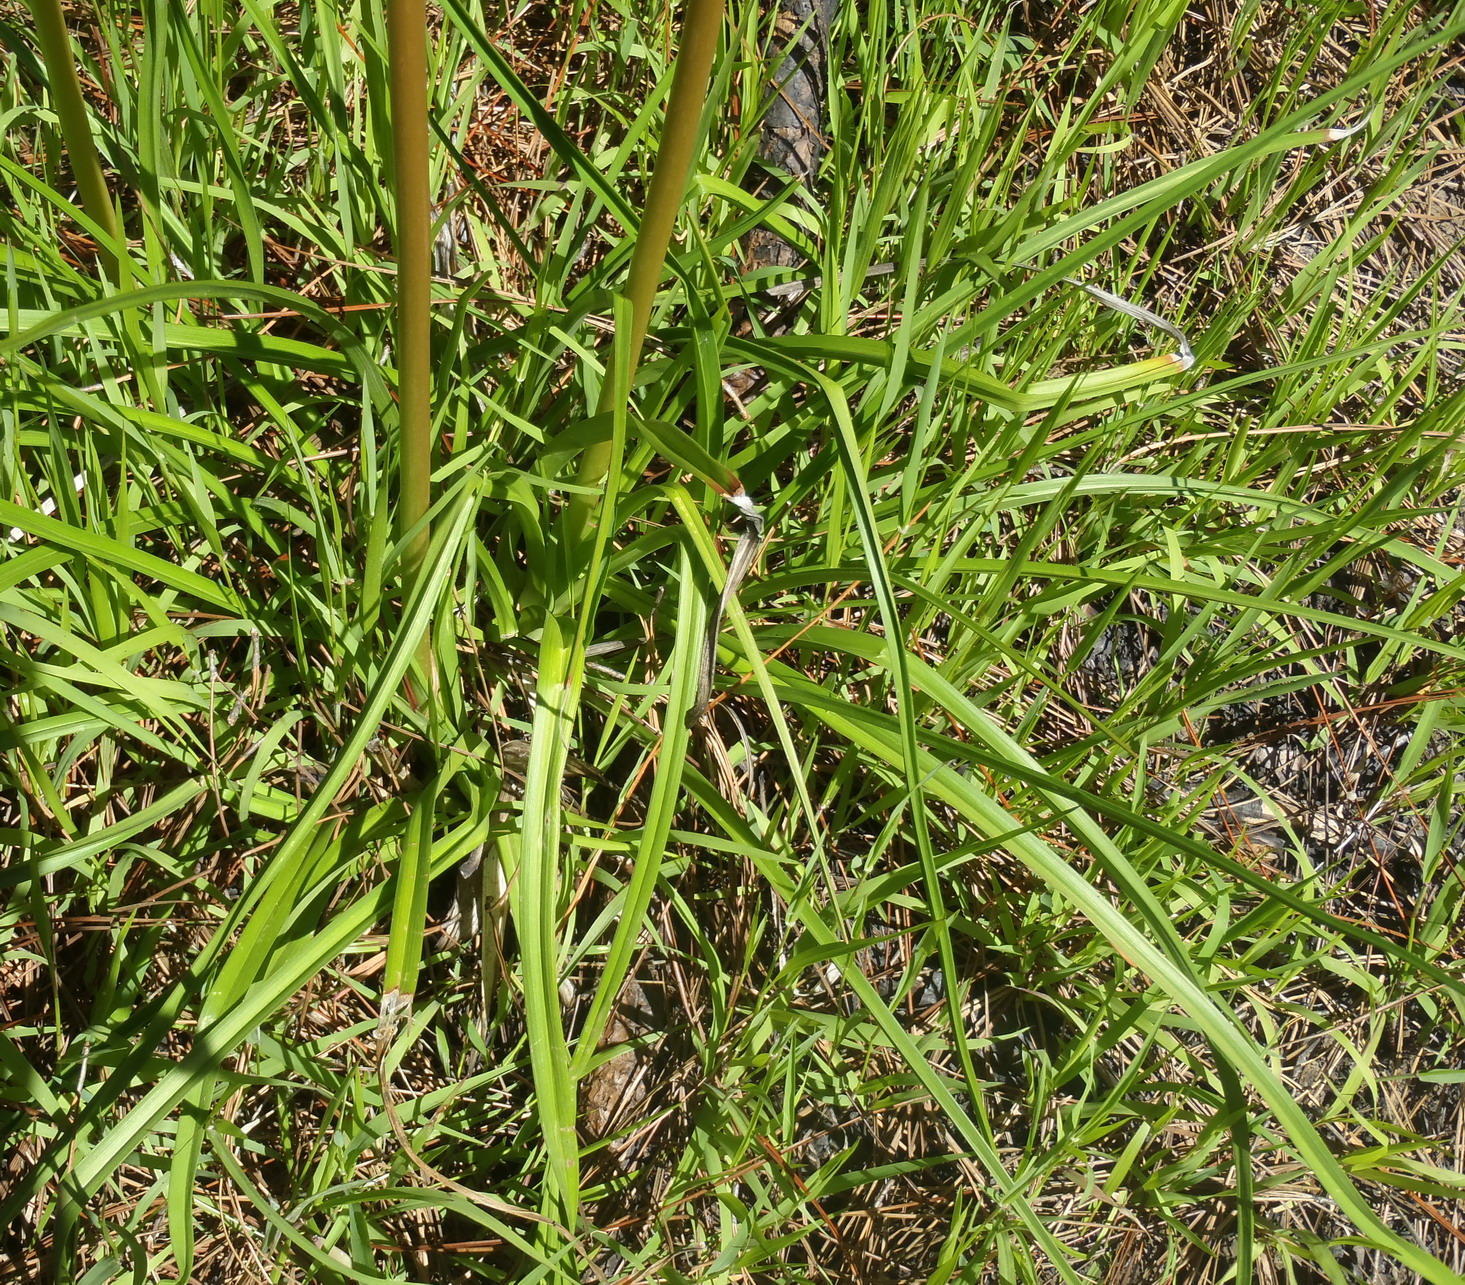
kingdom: Plantae
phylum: Tracheophyta
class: Liliopsida
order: Asparagales
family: Asphodelaceae
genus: Kniphofia
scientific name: Kniphofia uvaria
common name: Red-hot-poker
